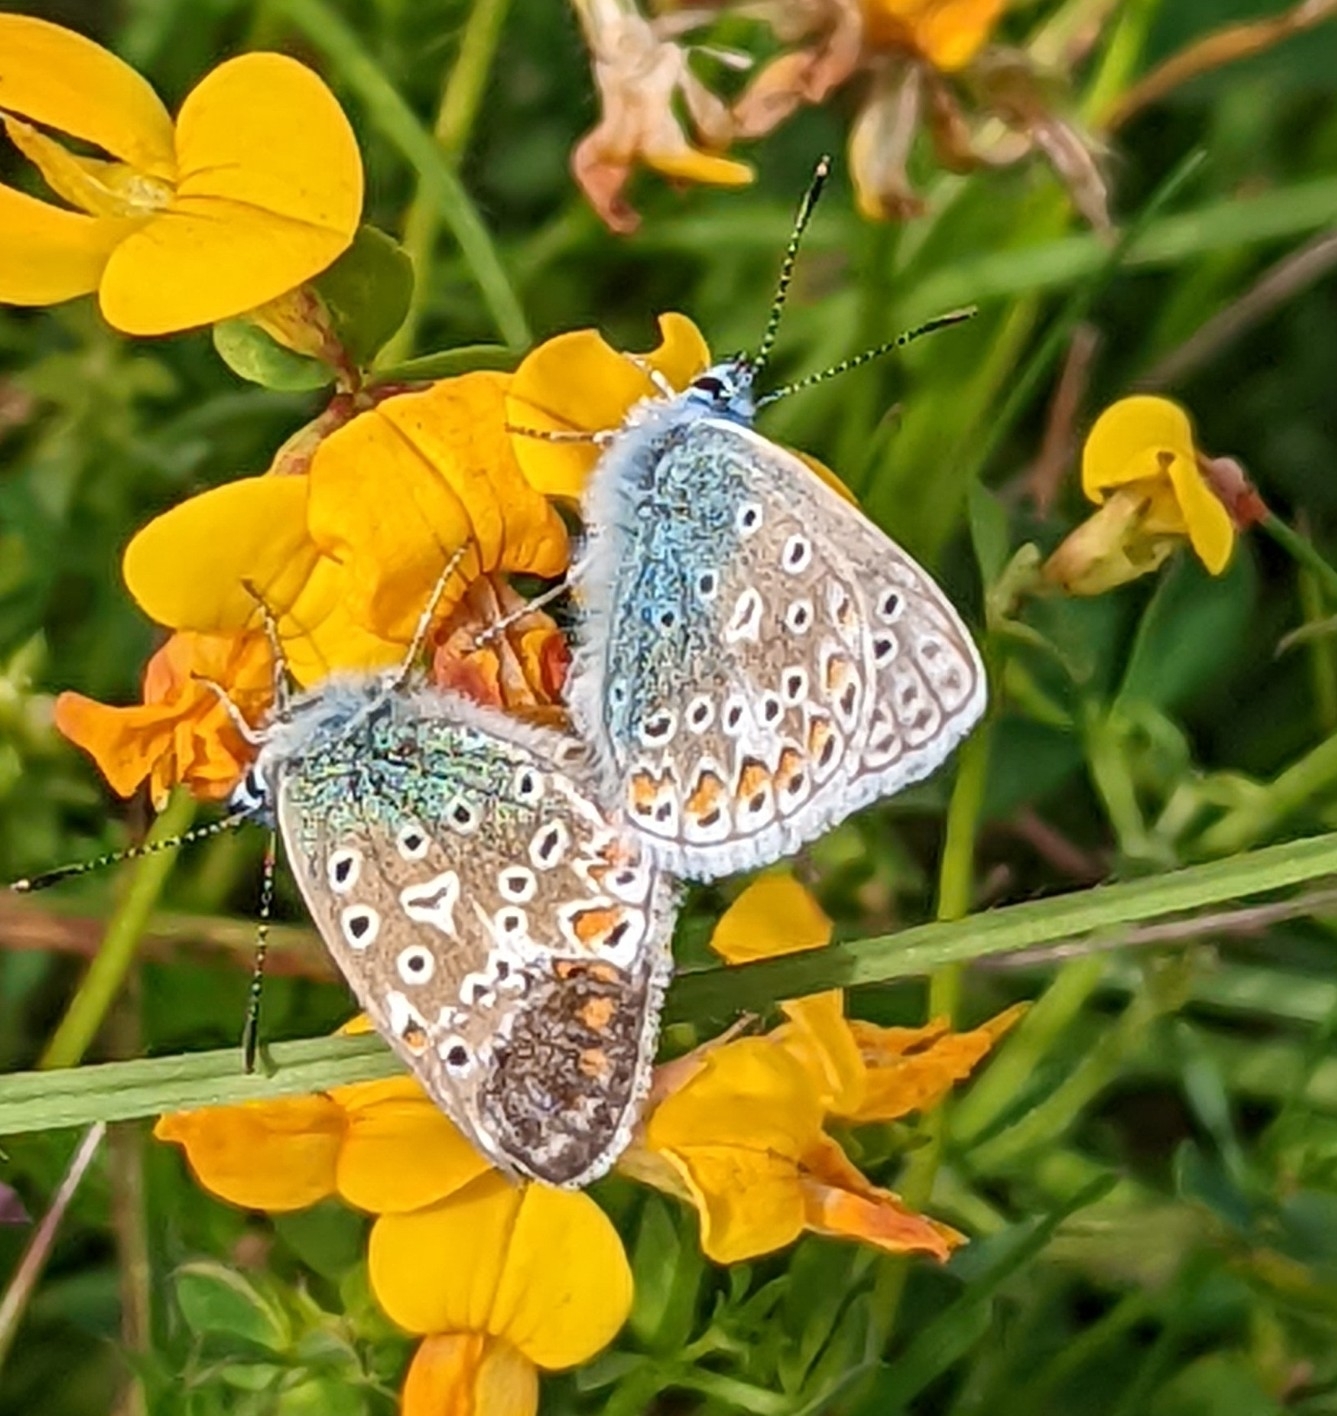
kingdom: Animalia
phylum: Arthropoda
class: Insecta
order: Lepidoptera
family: Lycaenidae
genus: Polyommatus
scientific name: Polyommatus icarus
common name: Common blue
